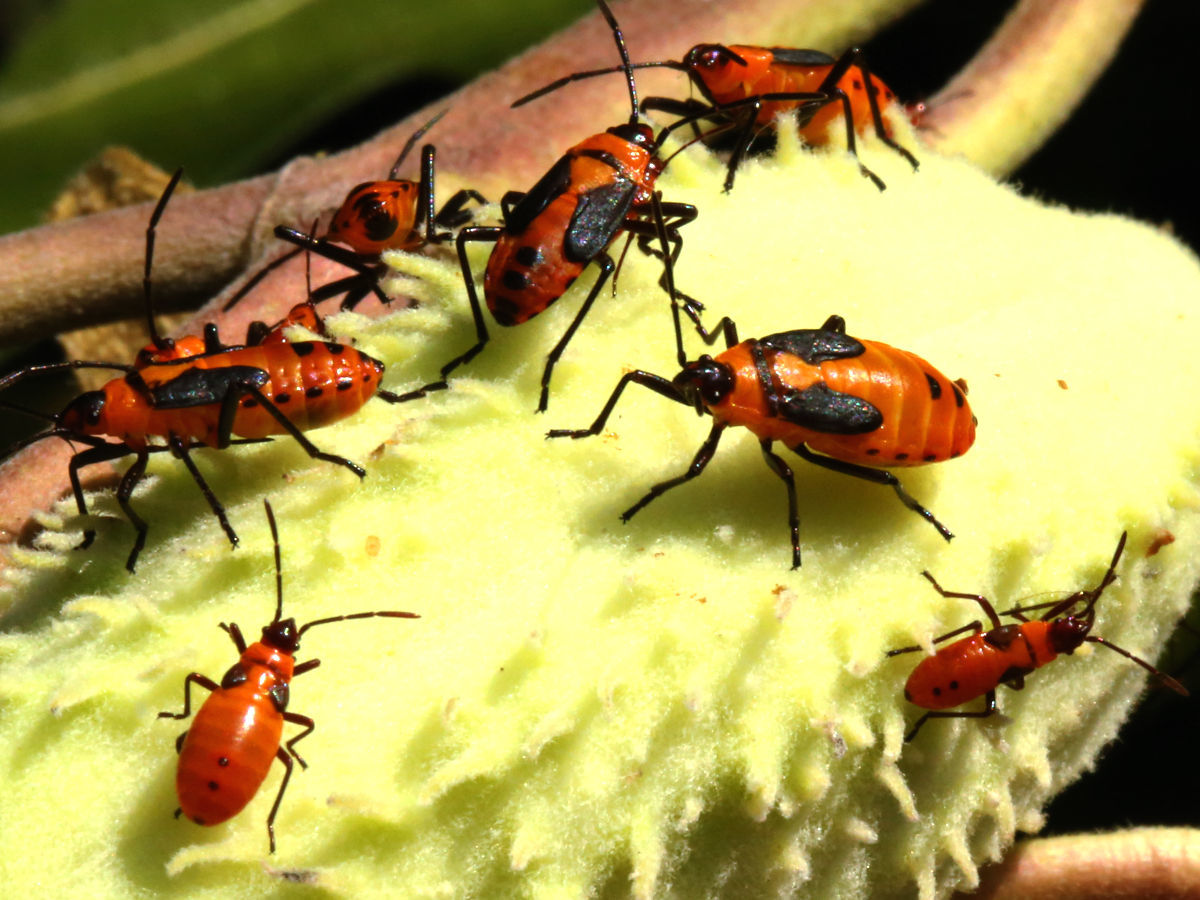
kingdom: Animalia
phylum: Arthropoda
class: Insecta
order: Hemiptera
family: Lygaeidae
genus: Oncopeltus
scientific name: Oncopeltus fasciatus
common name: Large milkweed bug
